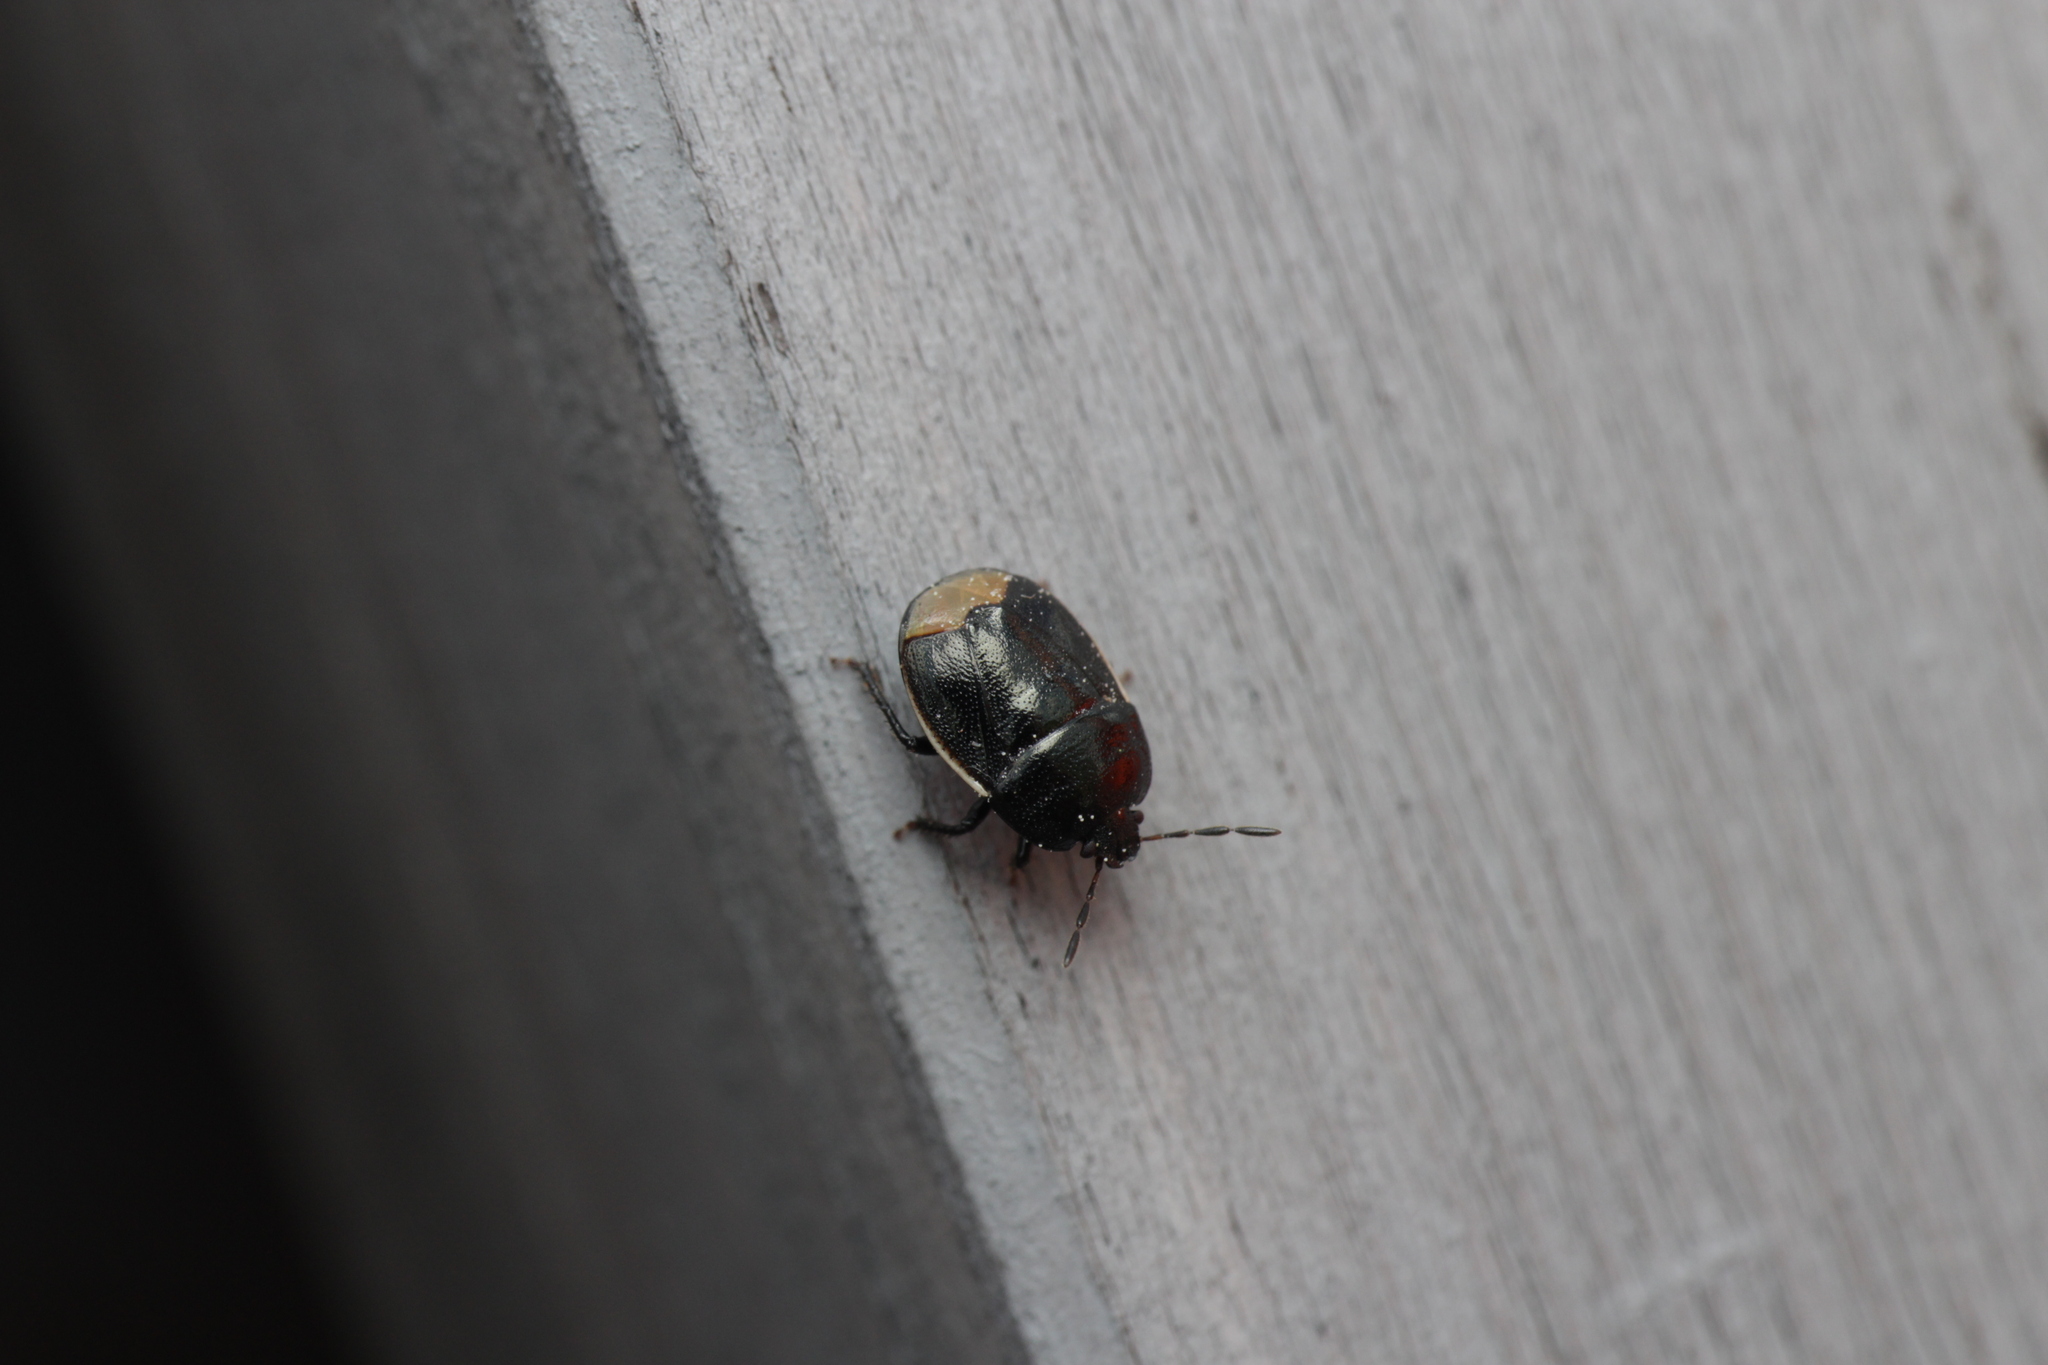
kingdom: Animalia
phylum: Arthropoda
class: Insecta
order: Hemiptera
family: Cydnidae
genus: Legnotus
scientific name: Legnotus limbosus
